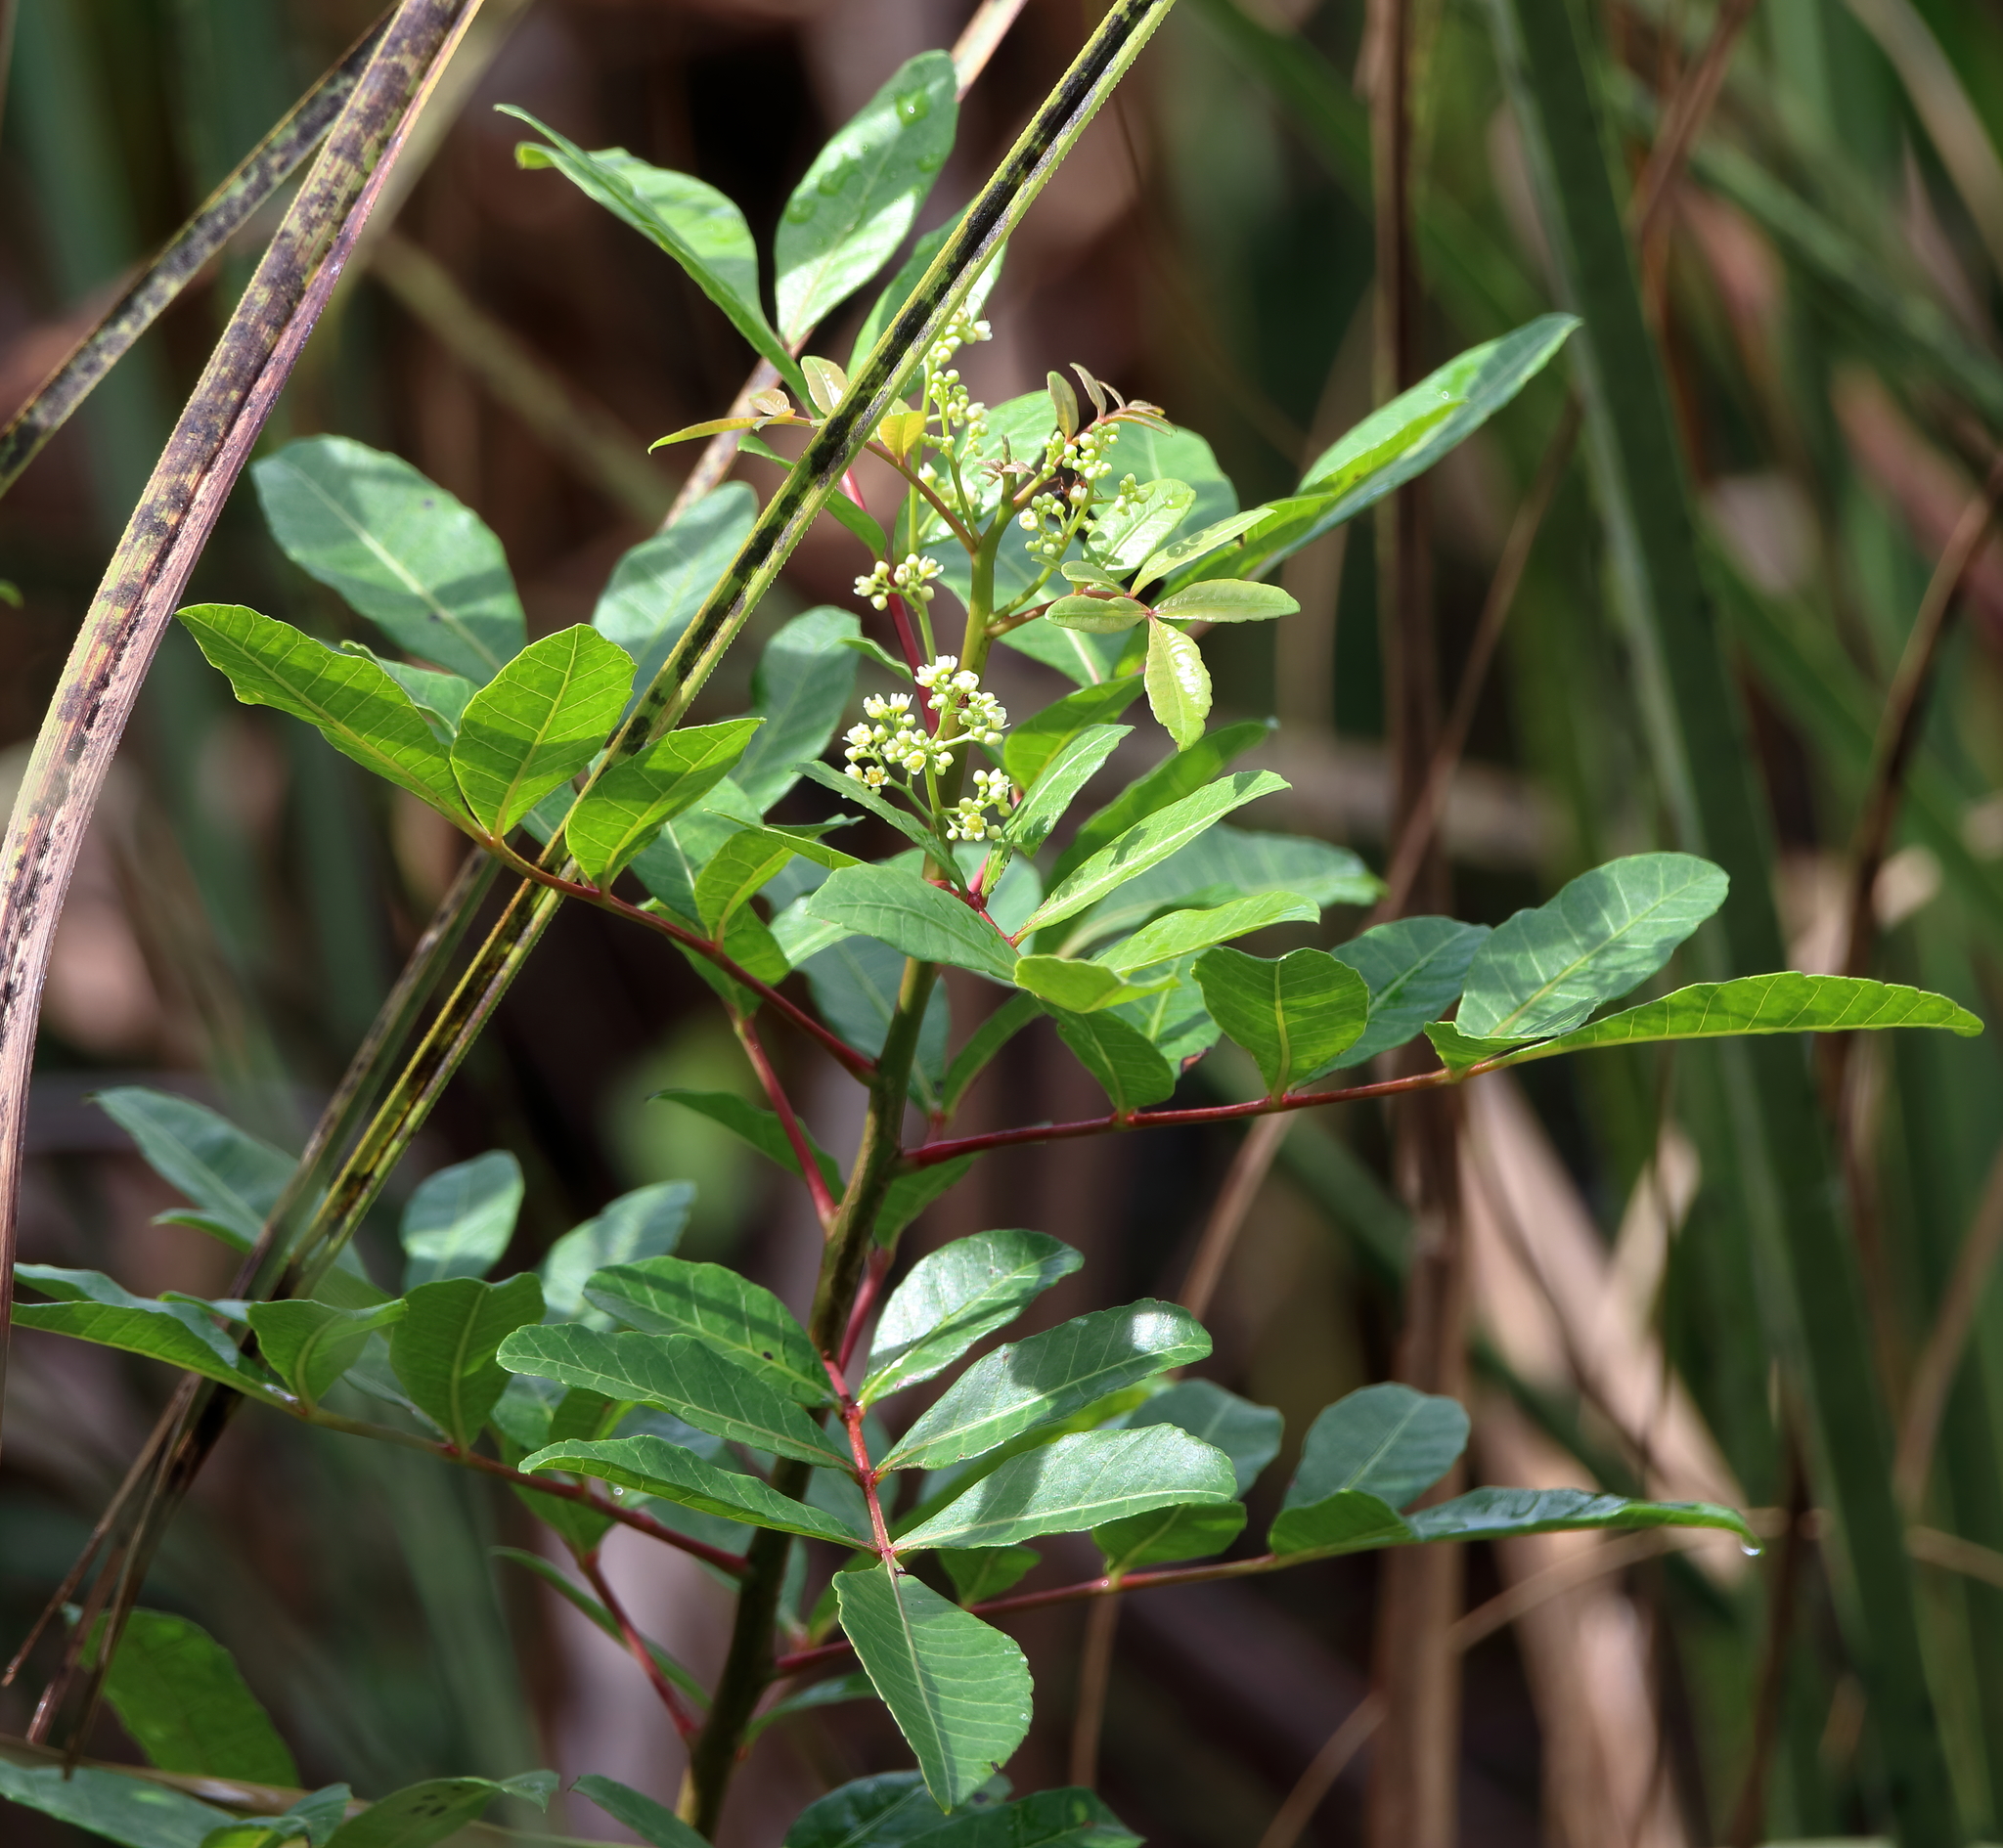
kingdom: Plantae
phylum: Tracheophyta
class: Magnoliopsida
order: Sapindales
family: Anacardiaceae
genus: Schinus
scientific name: Schinus terebinthifolia
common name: Brazilian peppertree
